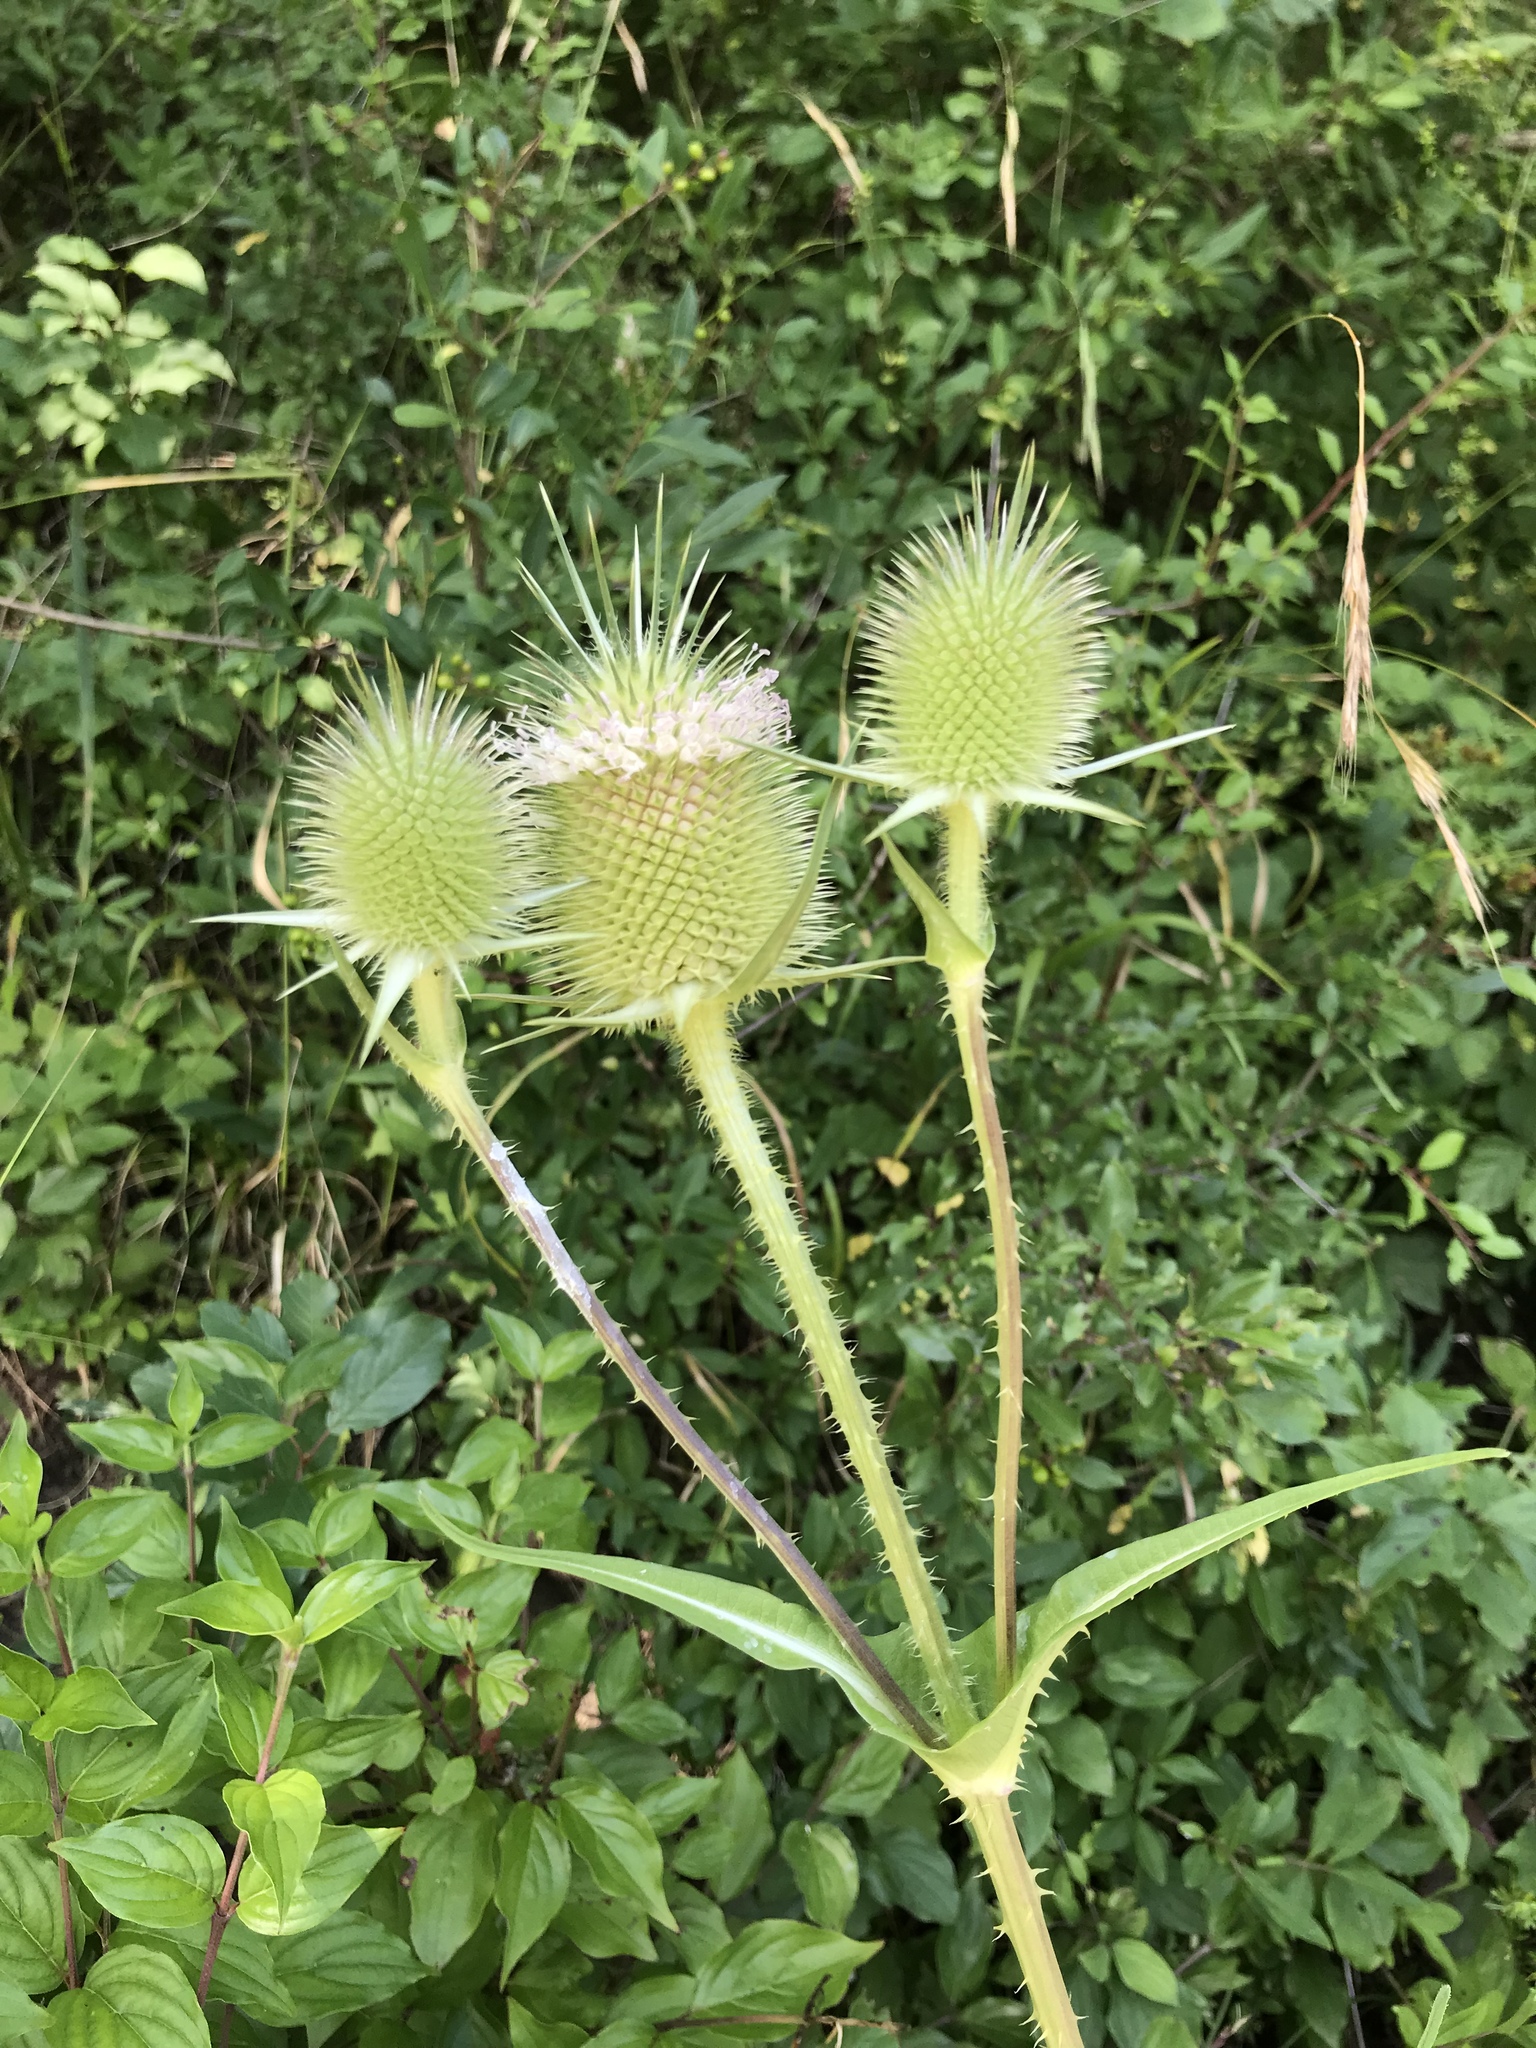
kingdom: Plantae
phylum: Tracheophyta
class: Magnoliopsida
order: Dipsacales
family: Caprifoliaceae
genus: Dipsacus
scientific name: Dipsacus laciniatus
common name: Cut-leaved teasel
